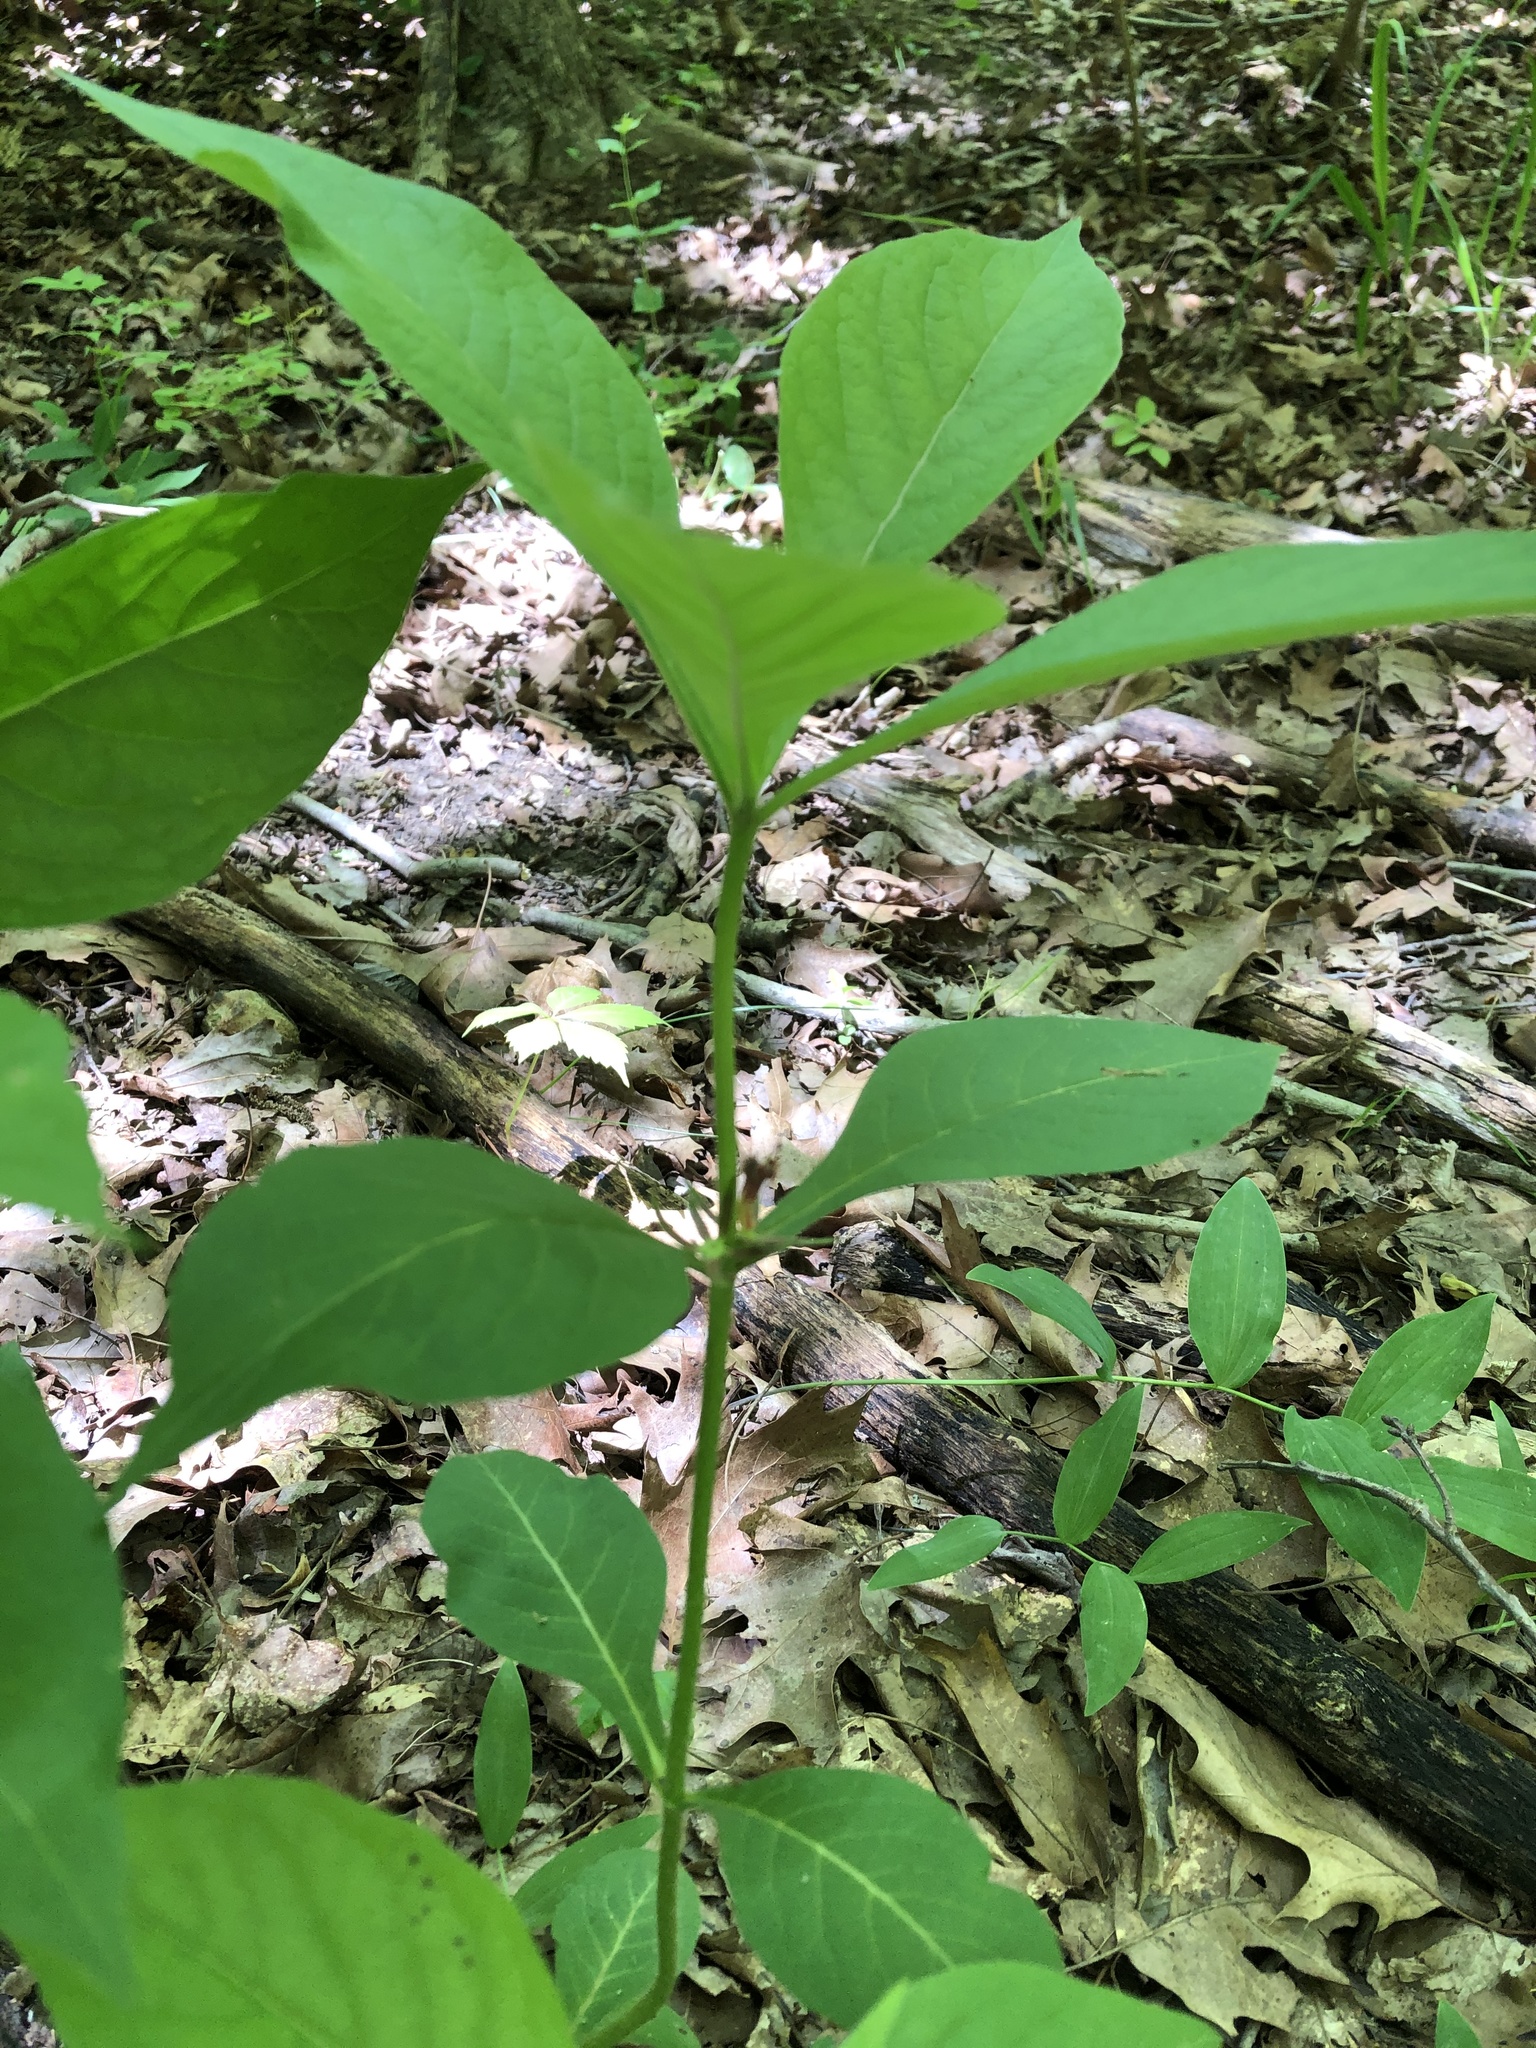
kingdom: Plantae
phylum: Tracheophyta
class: Magnoliopsida
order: Dipsacales
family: Caprifoliaceae
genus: Triosteum
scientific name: Triosteum aurantiacum
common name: Coffee tinker's-weed
